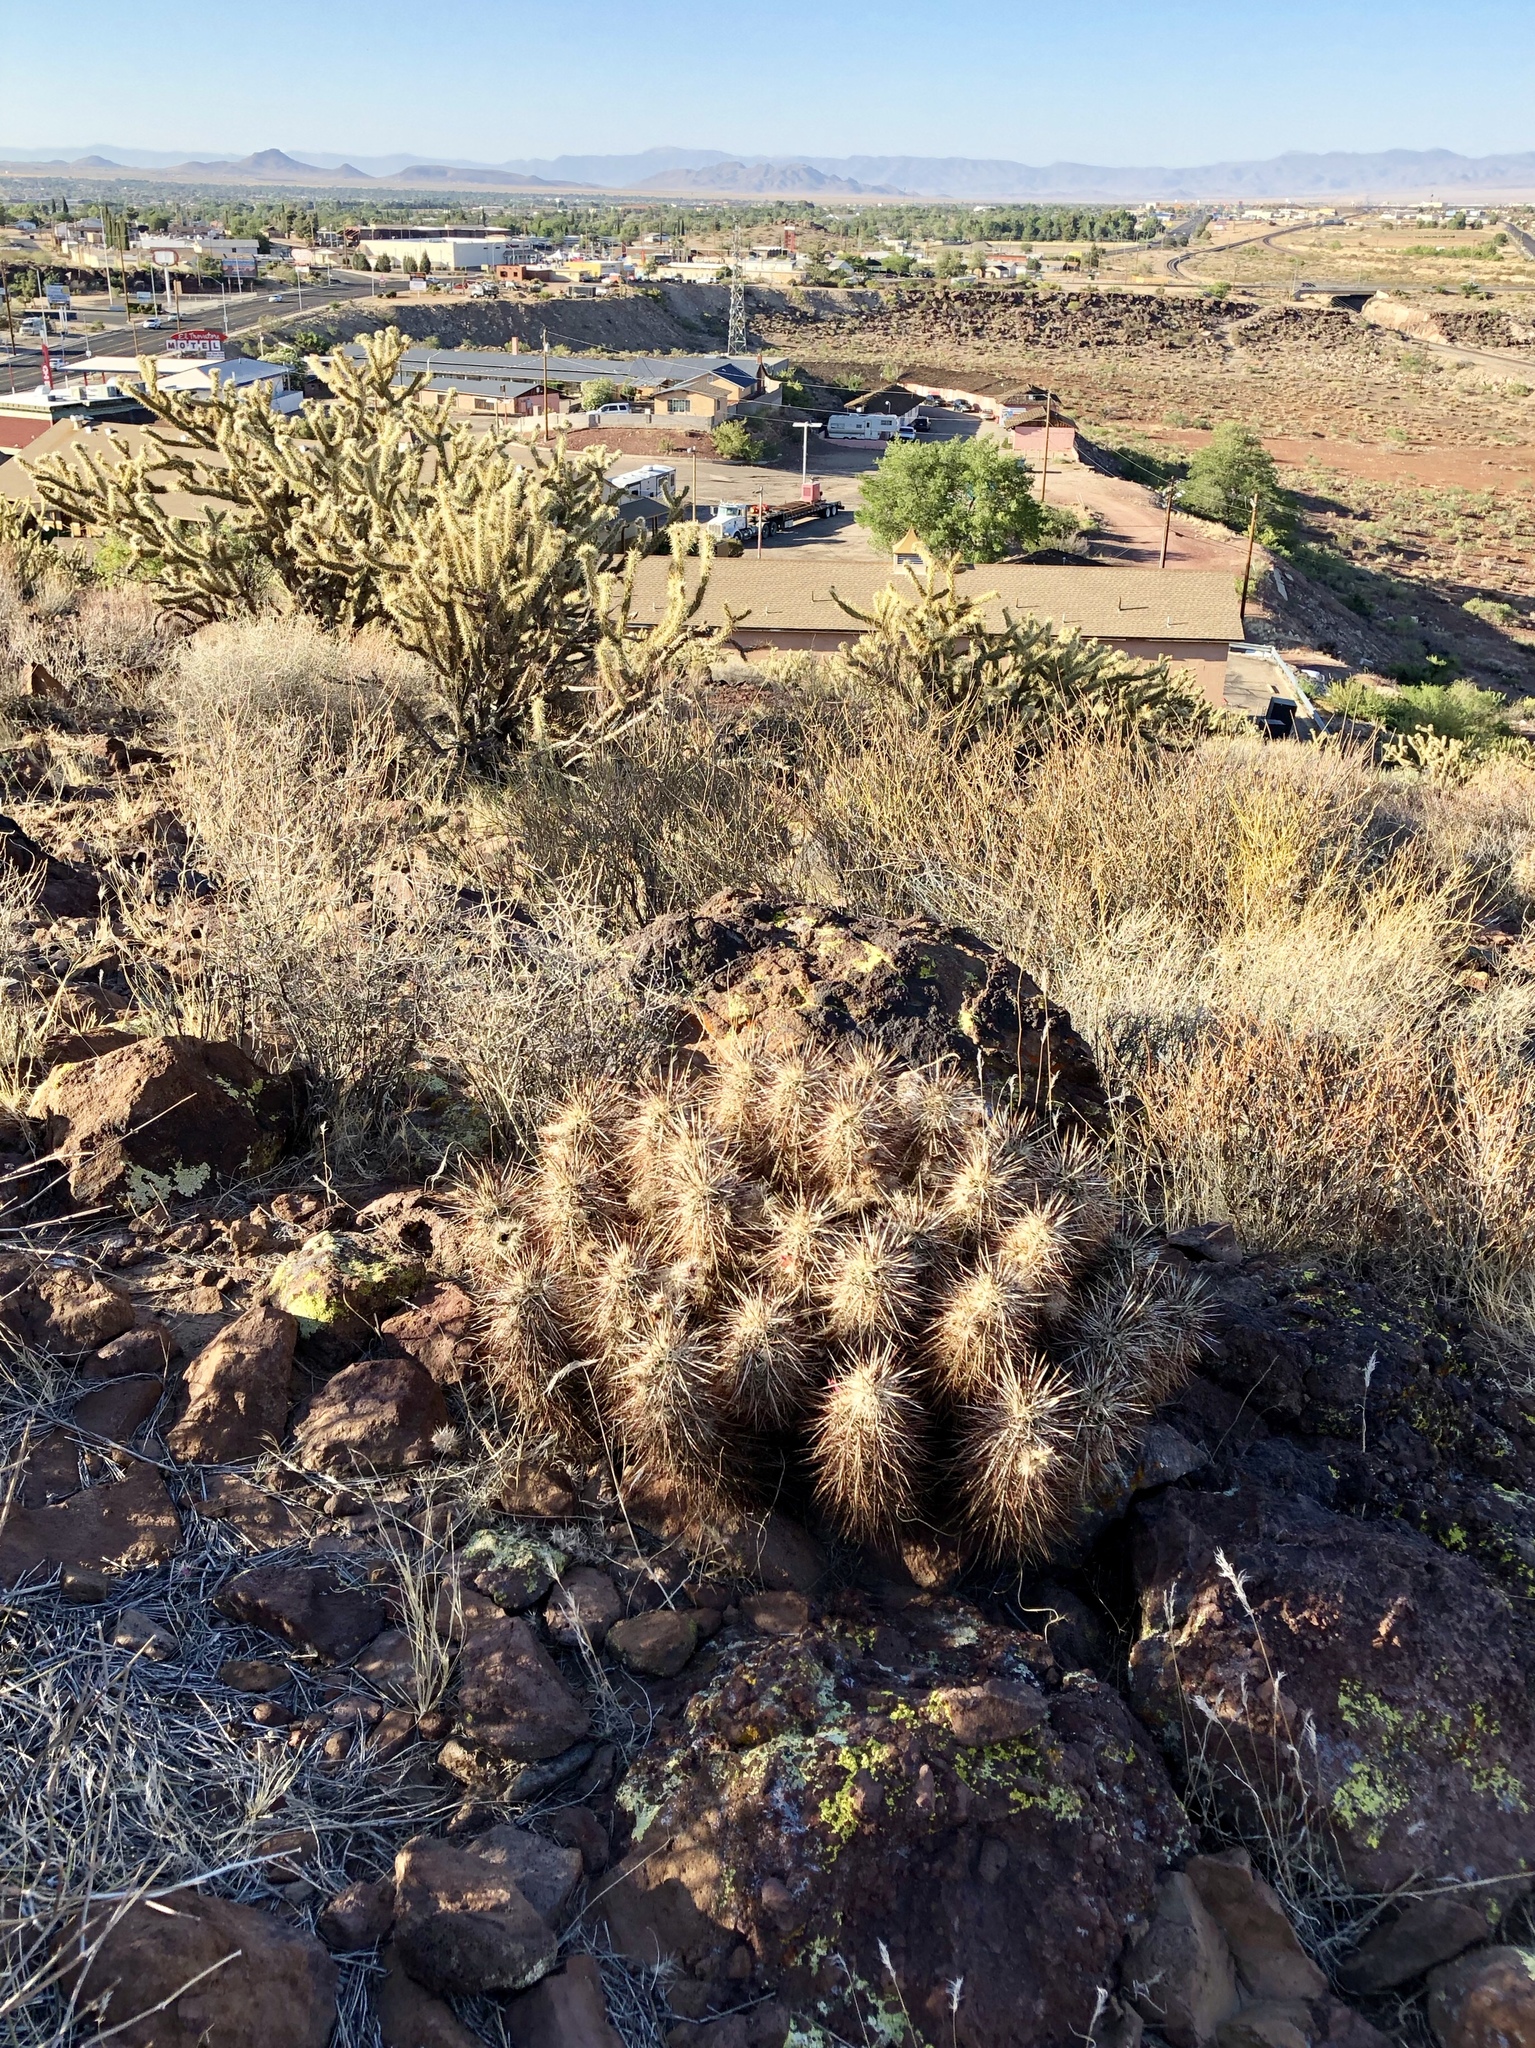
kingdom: Plantae
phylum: Tracheophyta
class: Magnoliopsida
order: Caryophyllales
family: Cactaceae
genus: Echinocereus
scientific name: Echinocereus engelmannii
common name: Engelmann's hedgehog cactus
